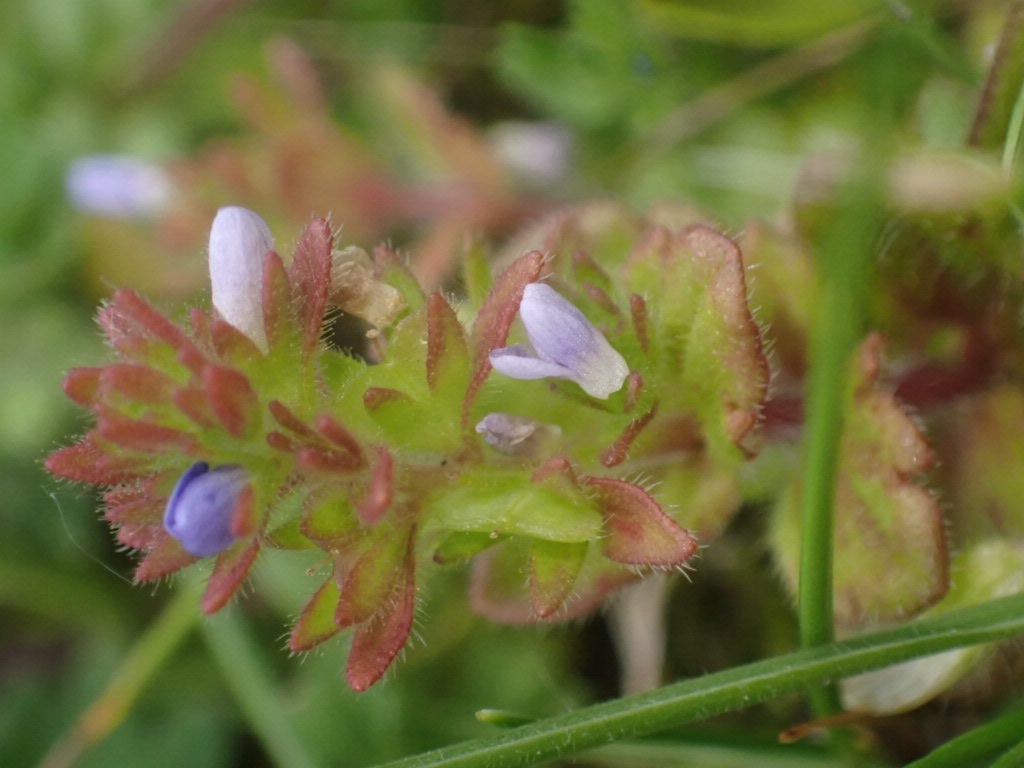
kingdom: Plantae
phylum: Tracheophyta
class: Magnoliopsida
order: Lamiales
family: Plantaginaceae
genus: Veronica
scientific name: Veronica arvensis
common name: Corn speedwell
